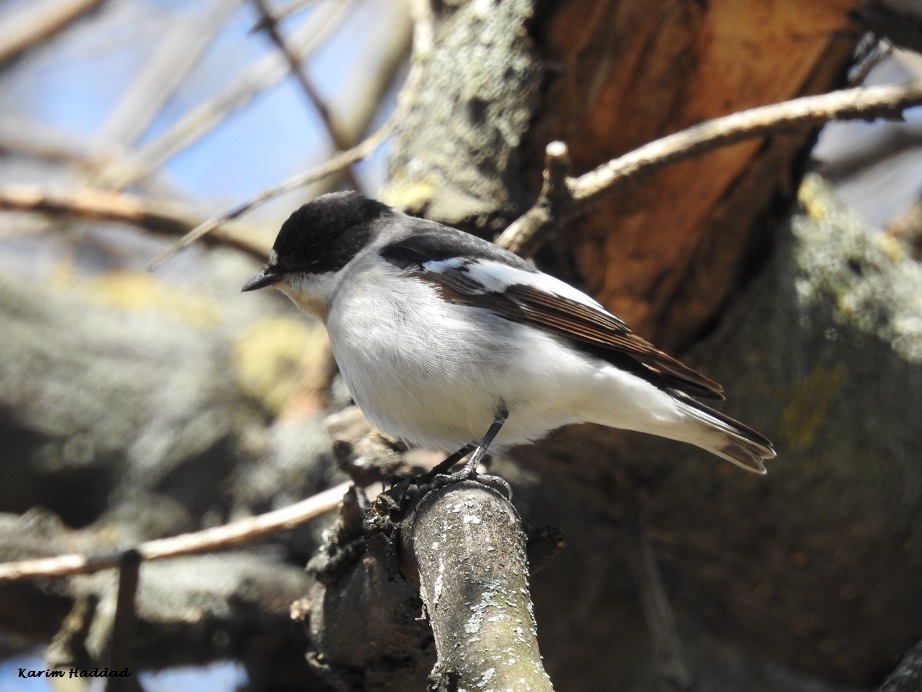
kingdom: Animalia
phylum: Chordata
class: Aves
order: Passeriformes
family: Muscicapidae
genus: Ficedula
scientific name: Ficedula albicollis
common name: Collared flycatcher
